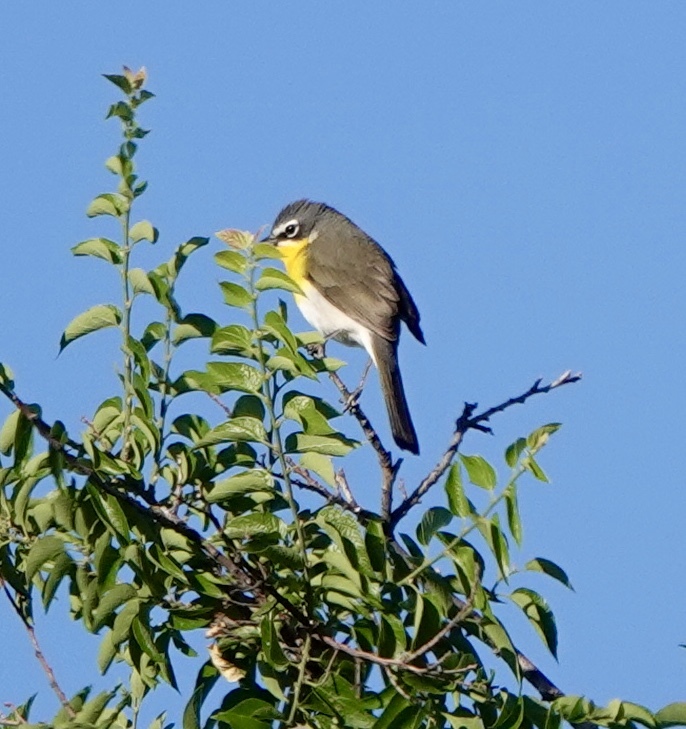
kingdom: Animalia
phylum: Chordata
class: Aves
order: Passeriformes
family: Parulidae
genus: Icteria
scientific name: Icteria virens
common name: Yellow-breasted chat
